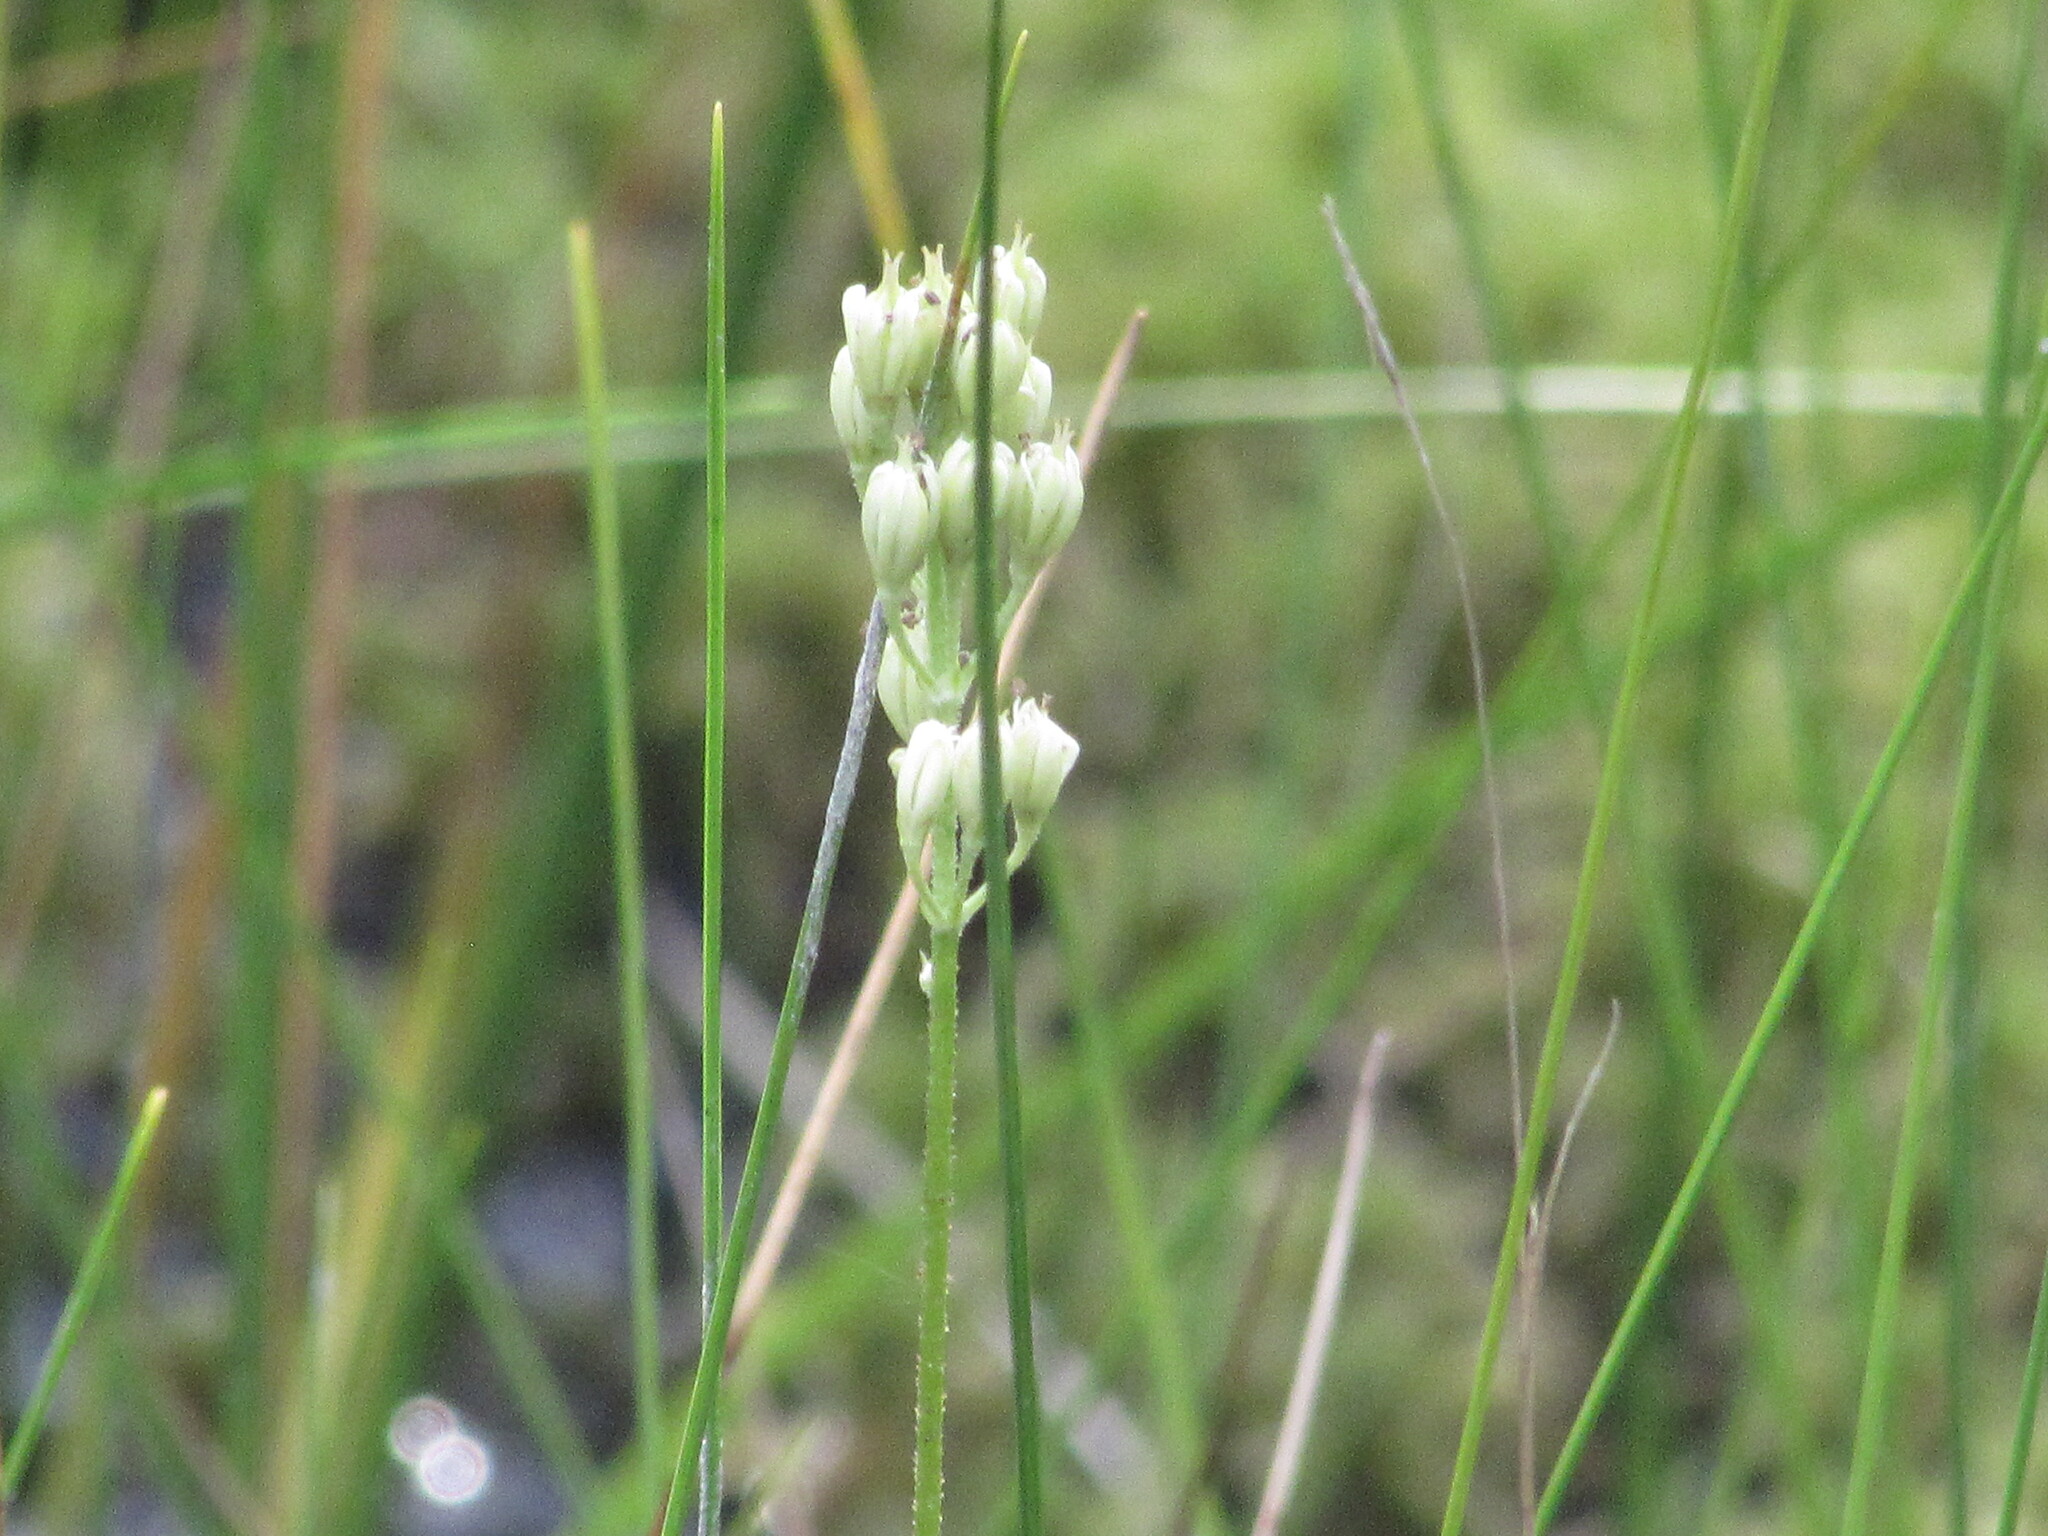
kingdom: Plantae
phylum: Tracheophyta
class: Liliopsida
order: Alismatales
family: Tofieldiaceae
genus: Triantha
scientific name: Triantha racemosa
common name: Coastal false asphodel
